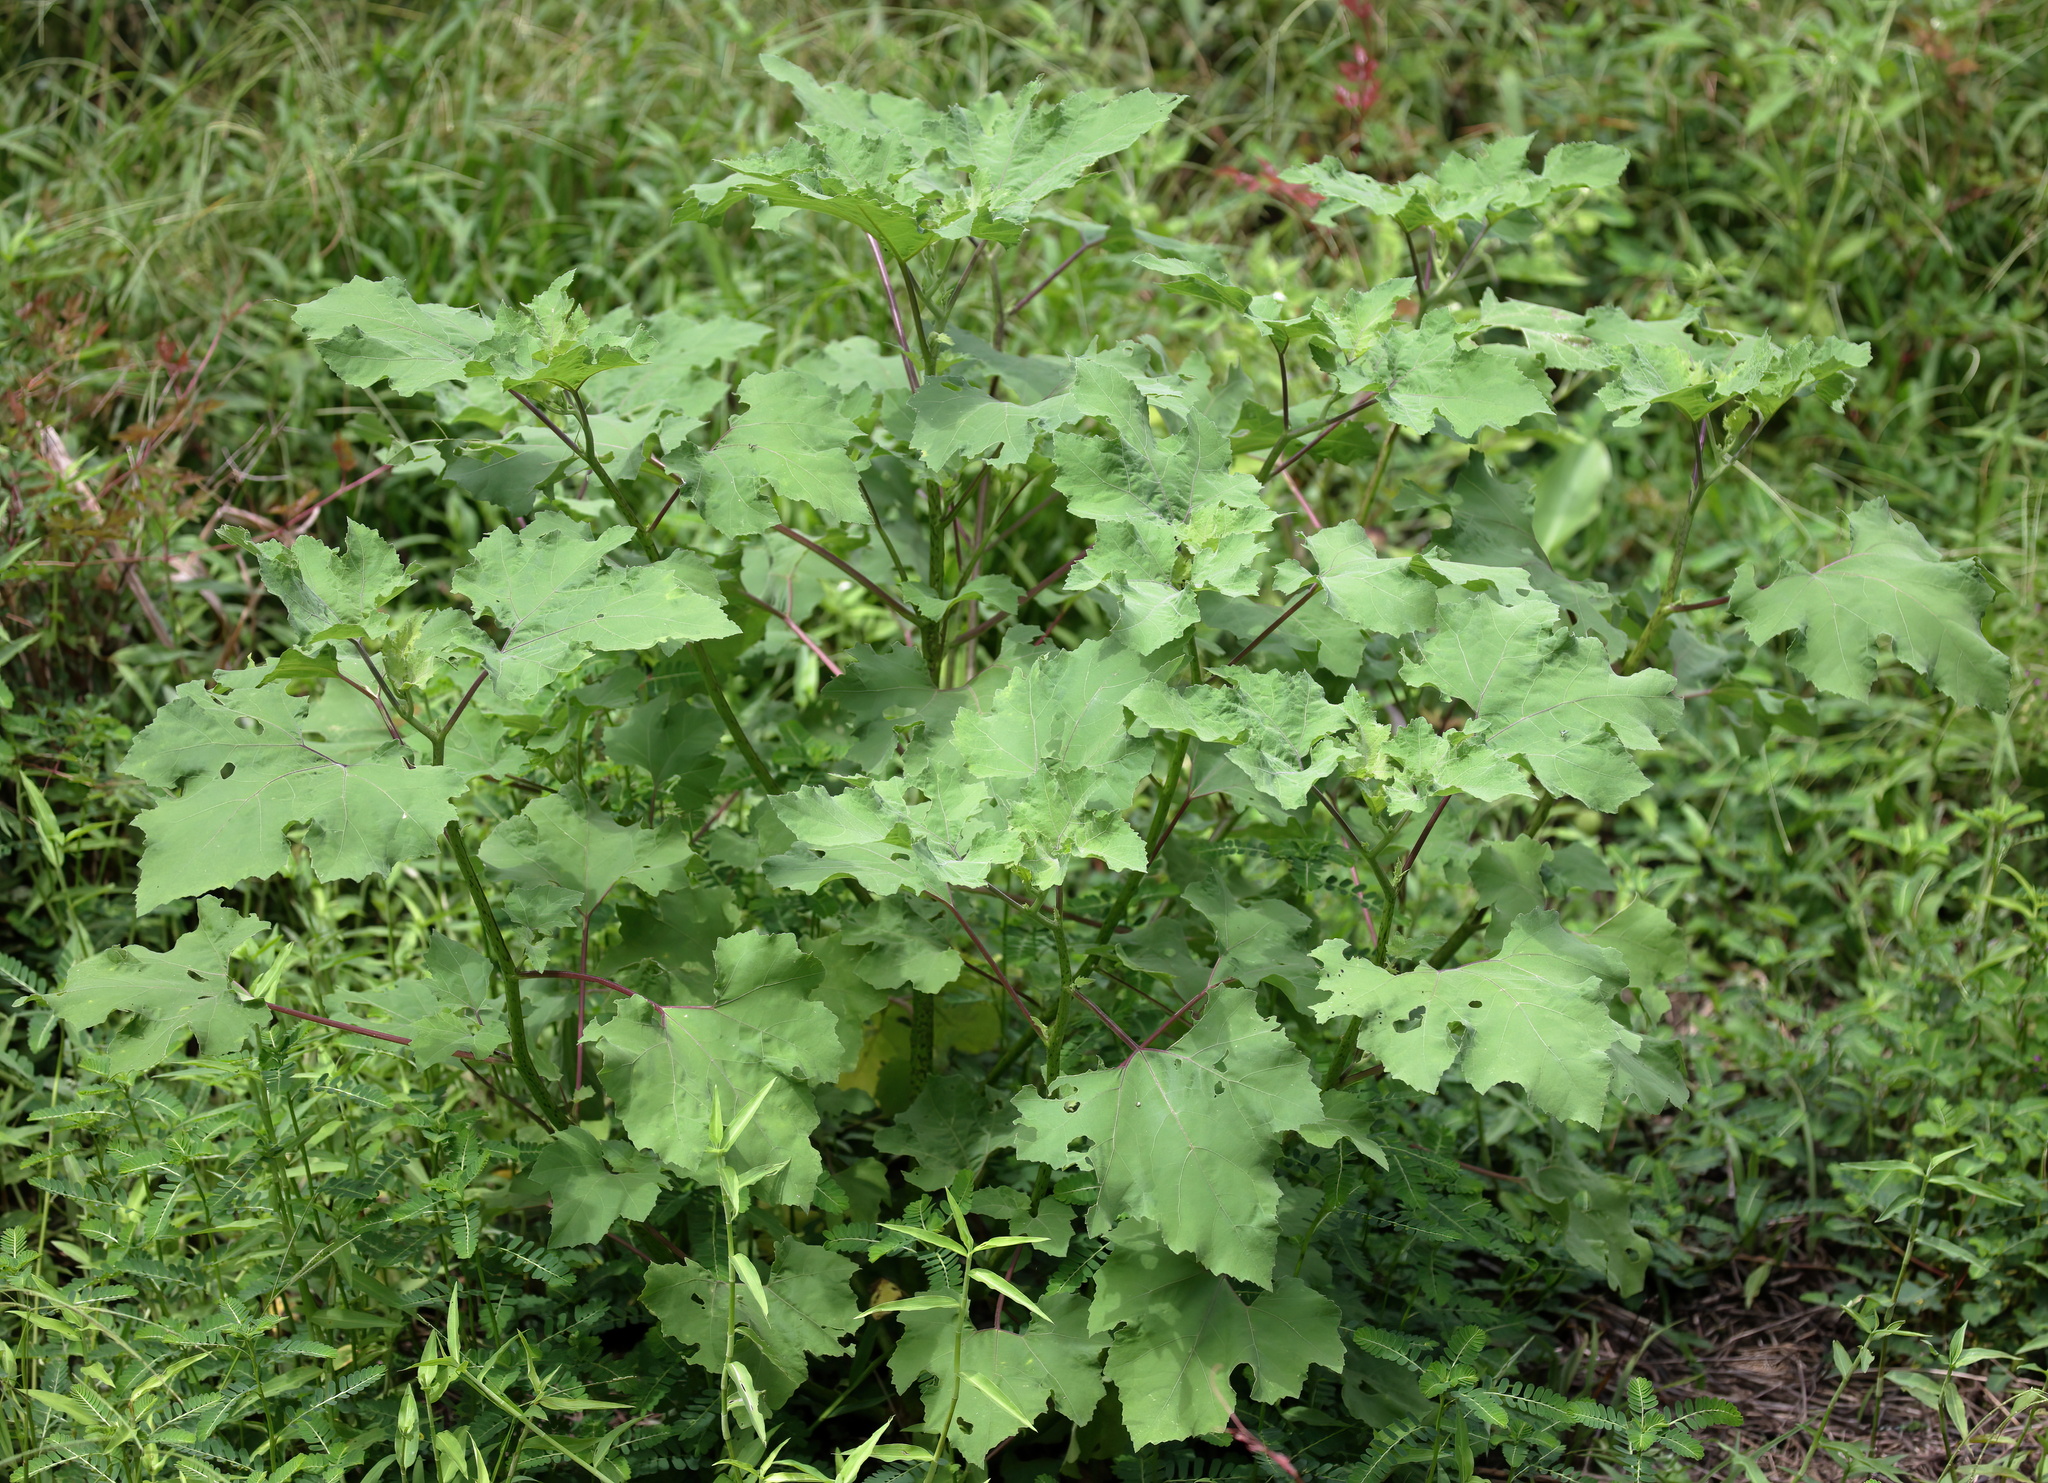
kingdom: Plantae
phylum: Tracheophyta
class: Magnoliopsida
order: Asterales
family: Asteraceae
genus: Xanthium
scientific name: Xanthium strumarium
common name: Rough cocklebur
